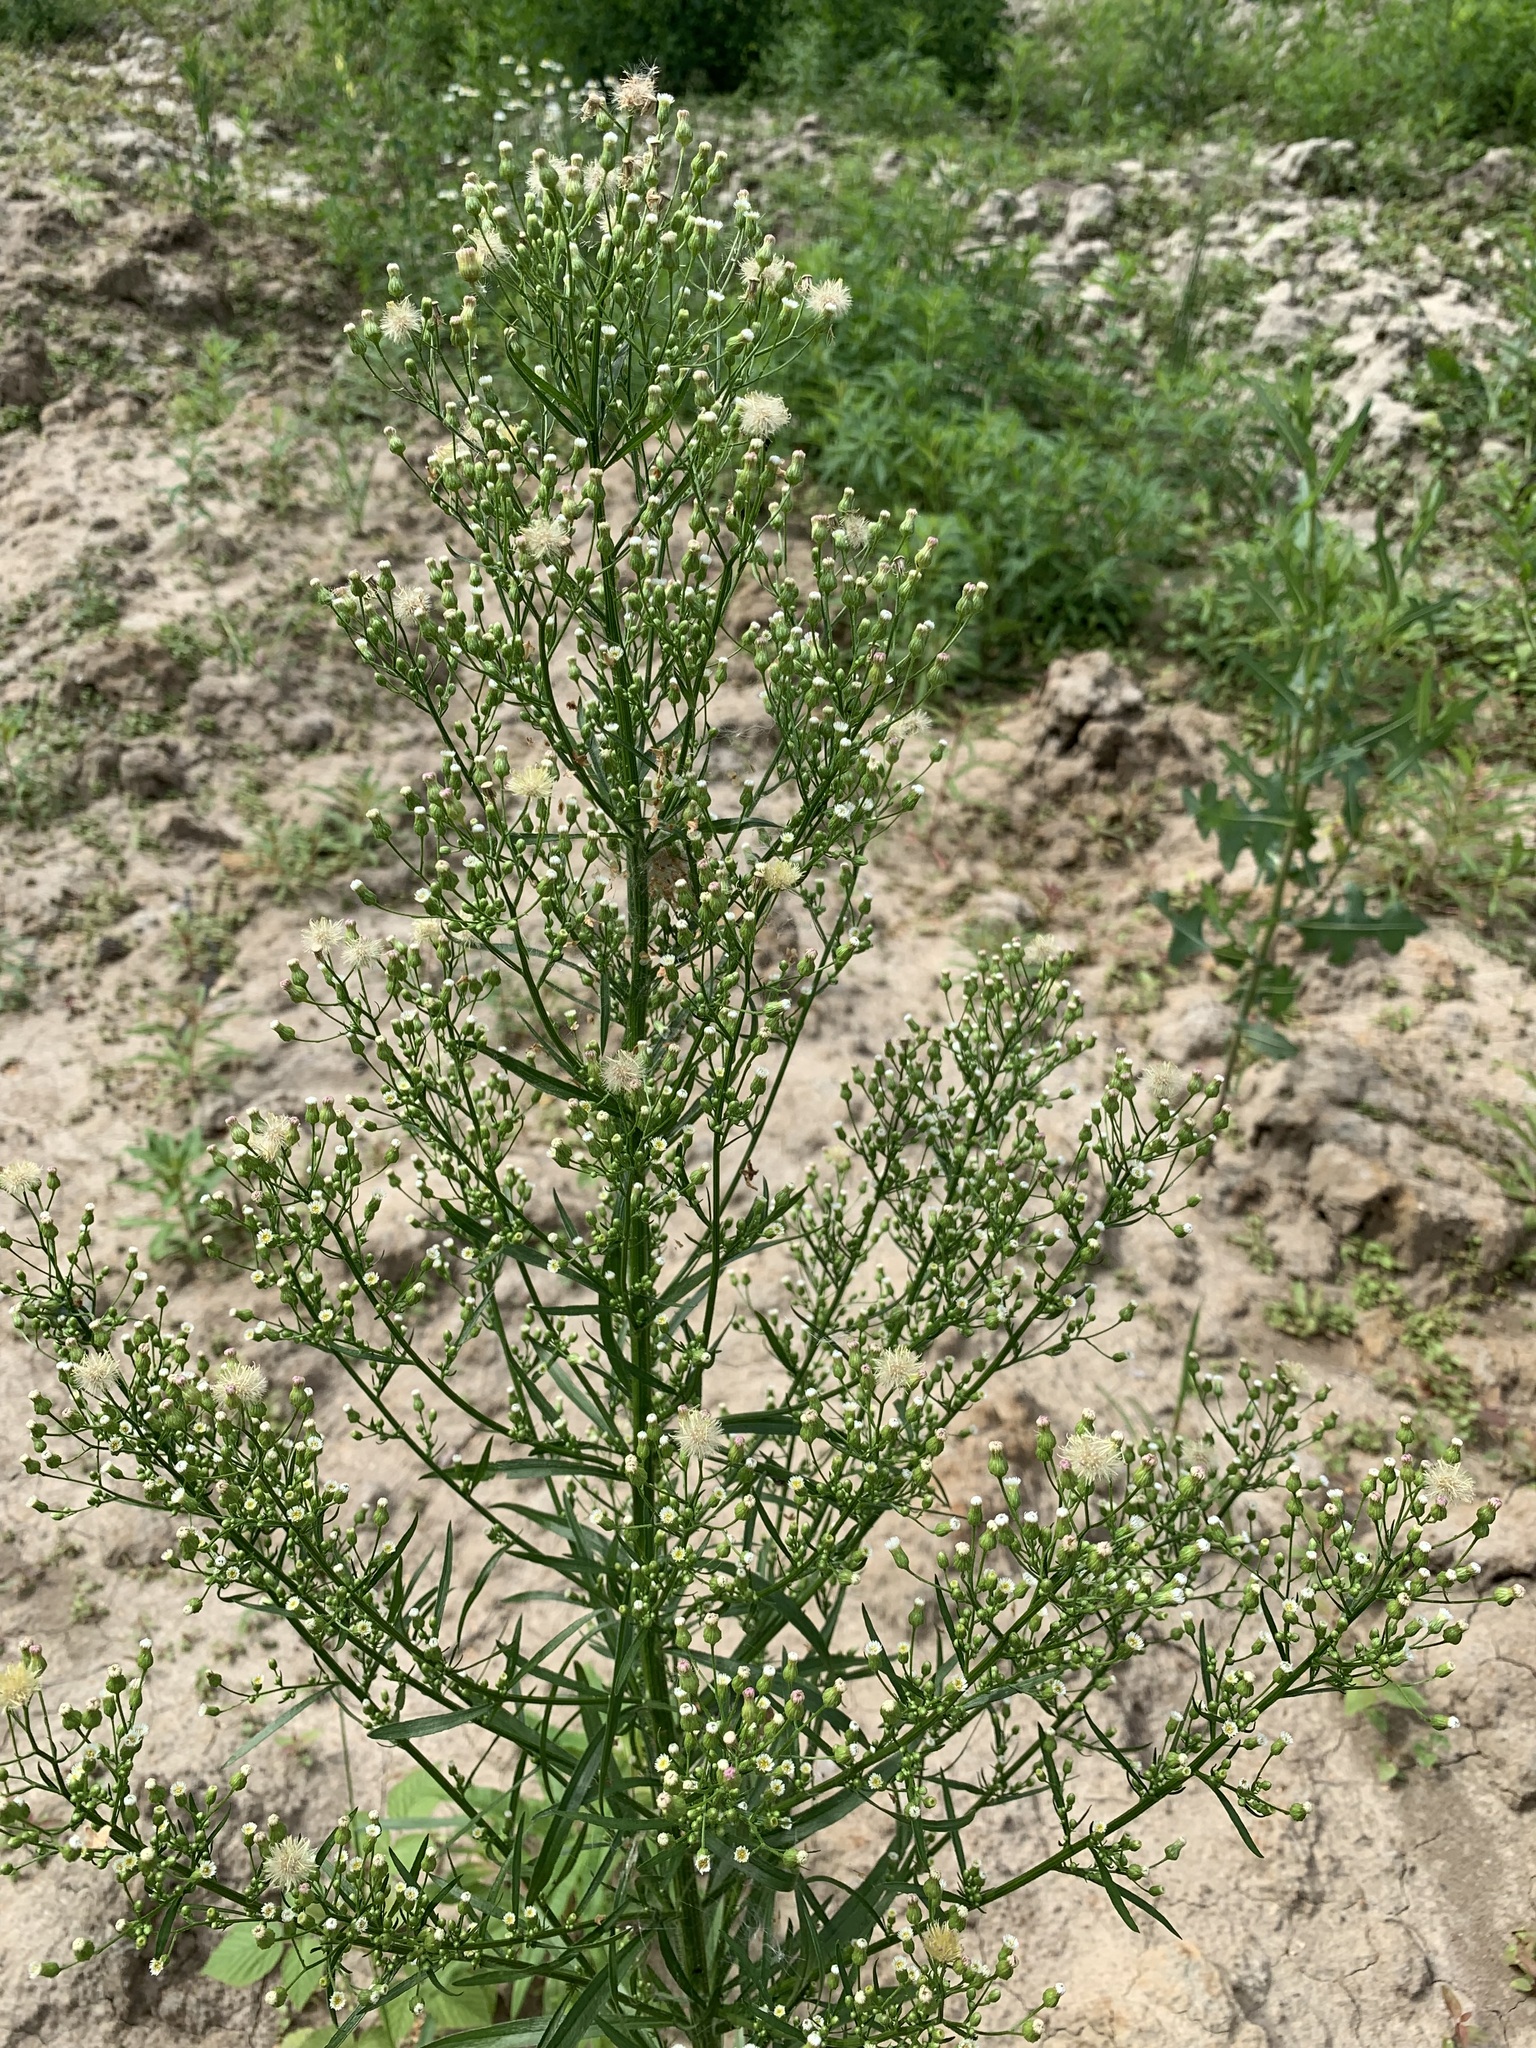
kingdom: Plantae
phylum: Tracheophyta
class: Magnoliopsida
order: Asterales
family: Asteraceae
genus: Erigeron
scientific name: Erigeron canadensis
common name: Canadian fleabane
